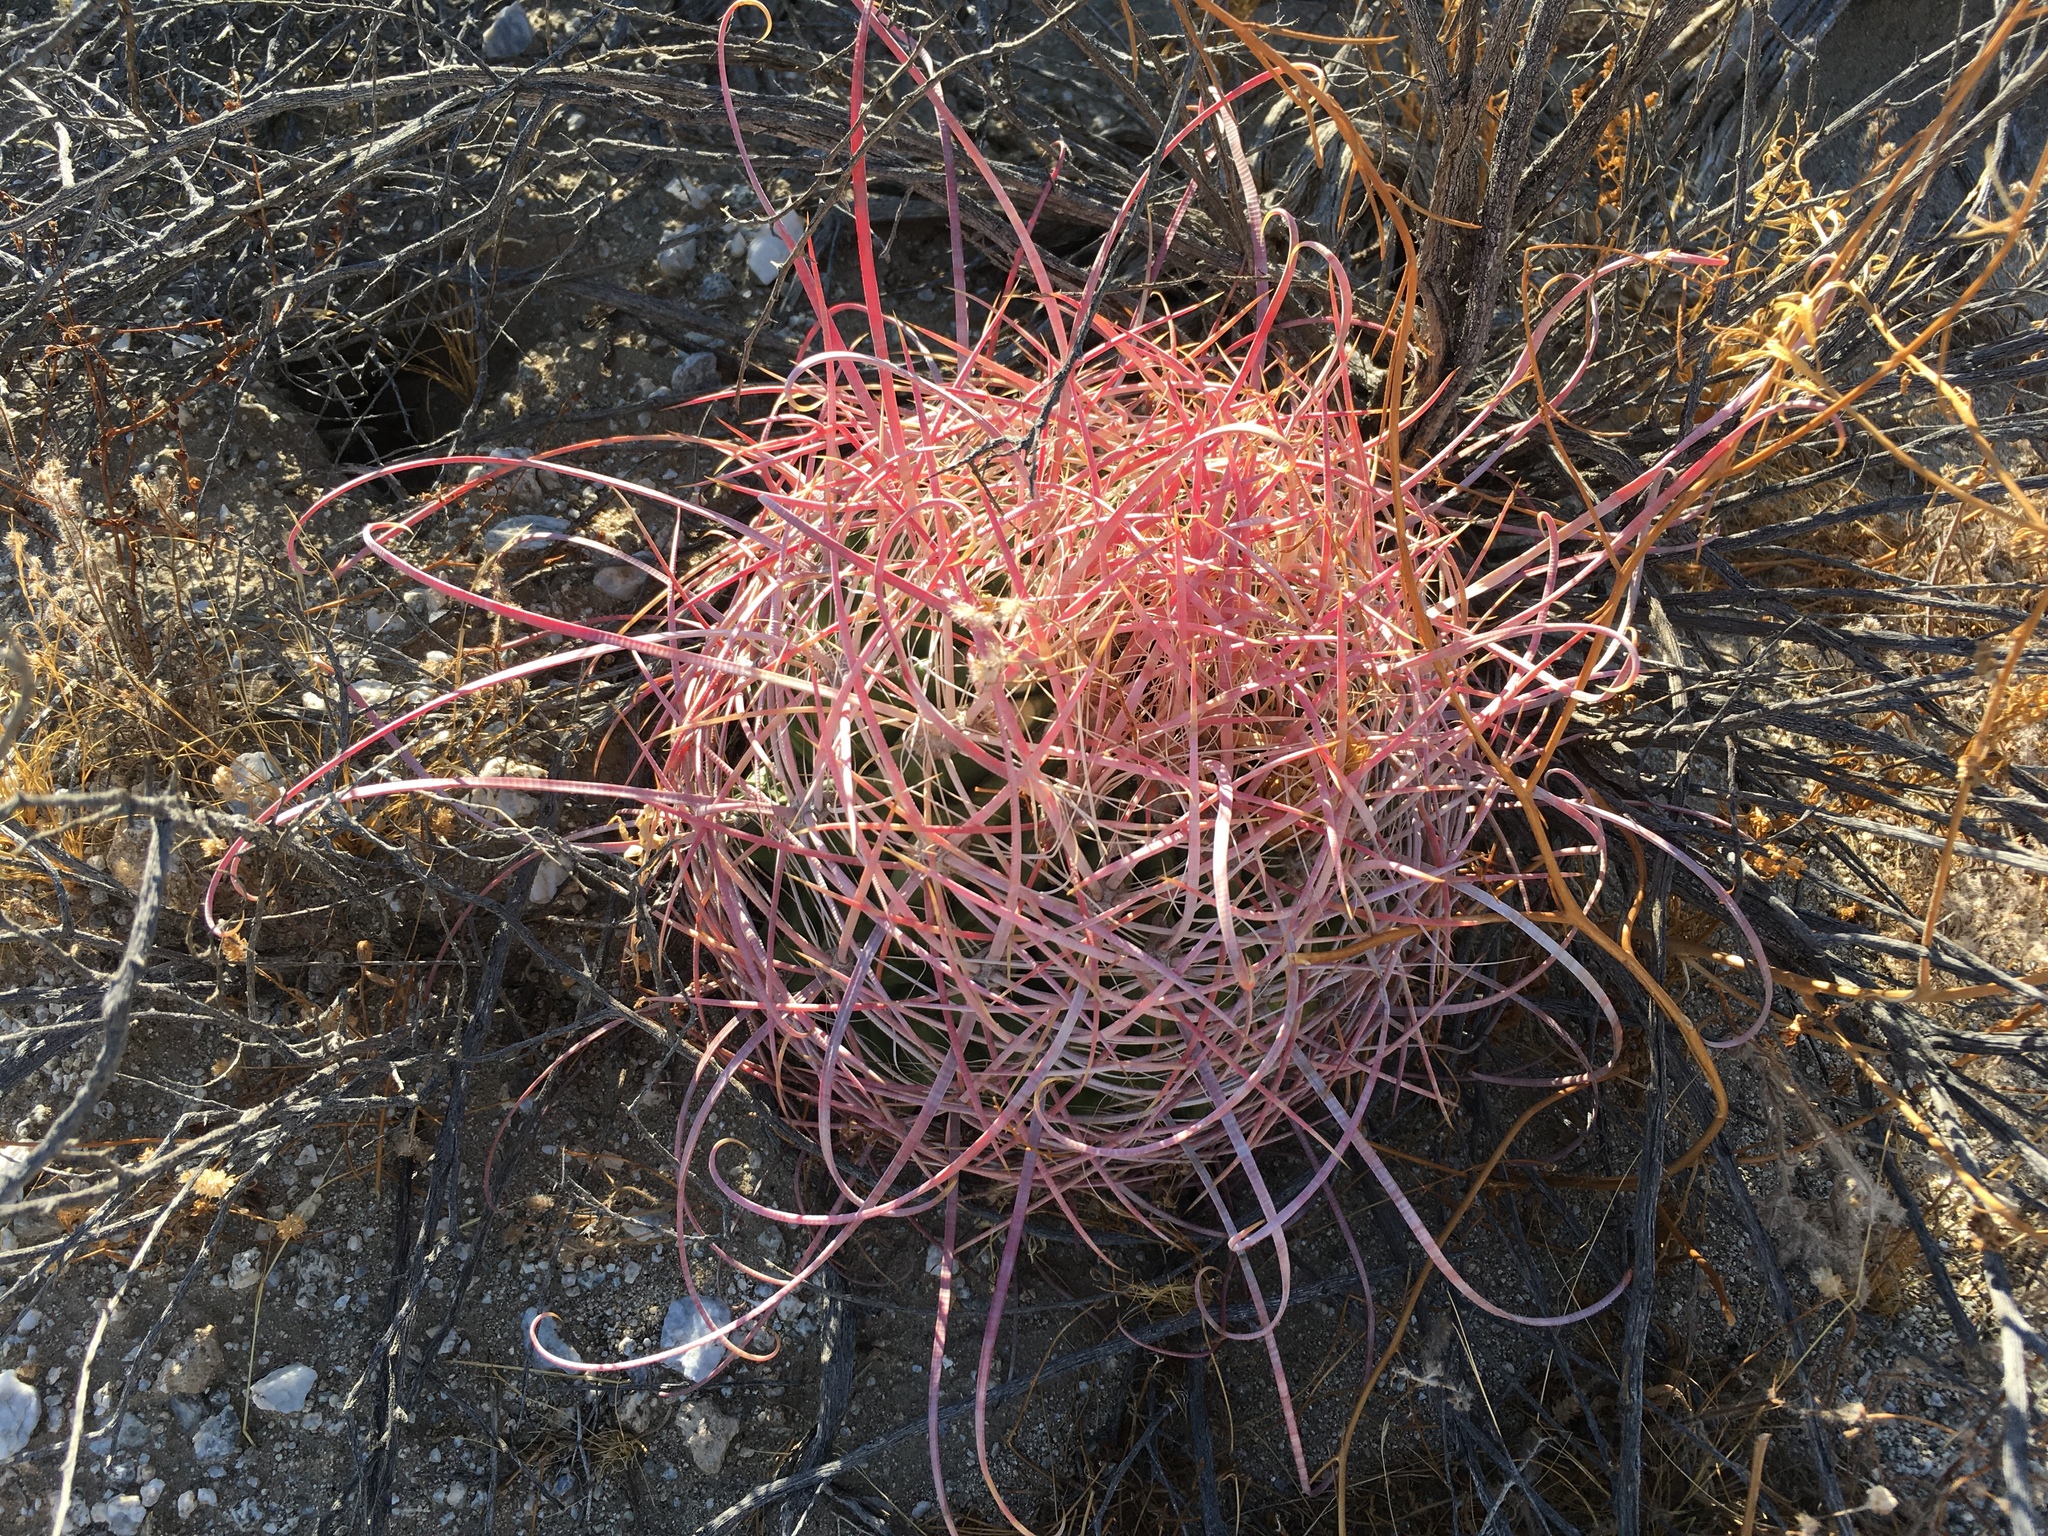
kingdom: Plantae
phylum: Tracheophyta
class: Magnoliopsida
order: Caryophyllales
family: Cactaceae
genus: Ferocactus
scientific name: Ferocactus cylindraceus
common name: California barrel cactus
